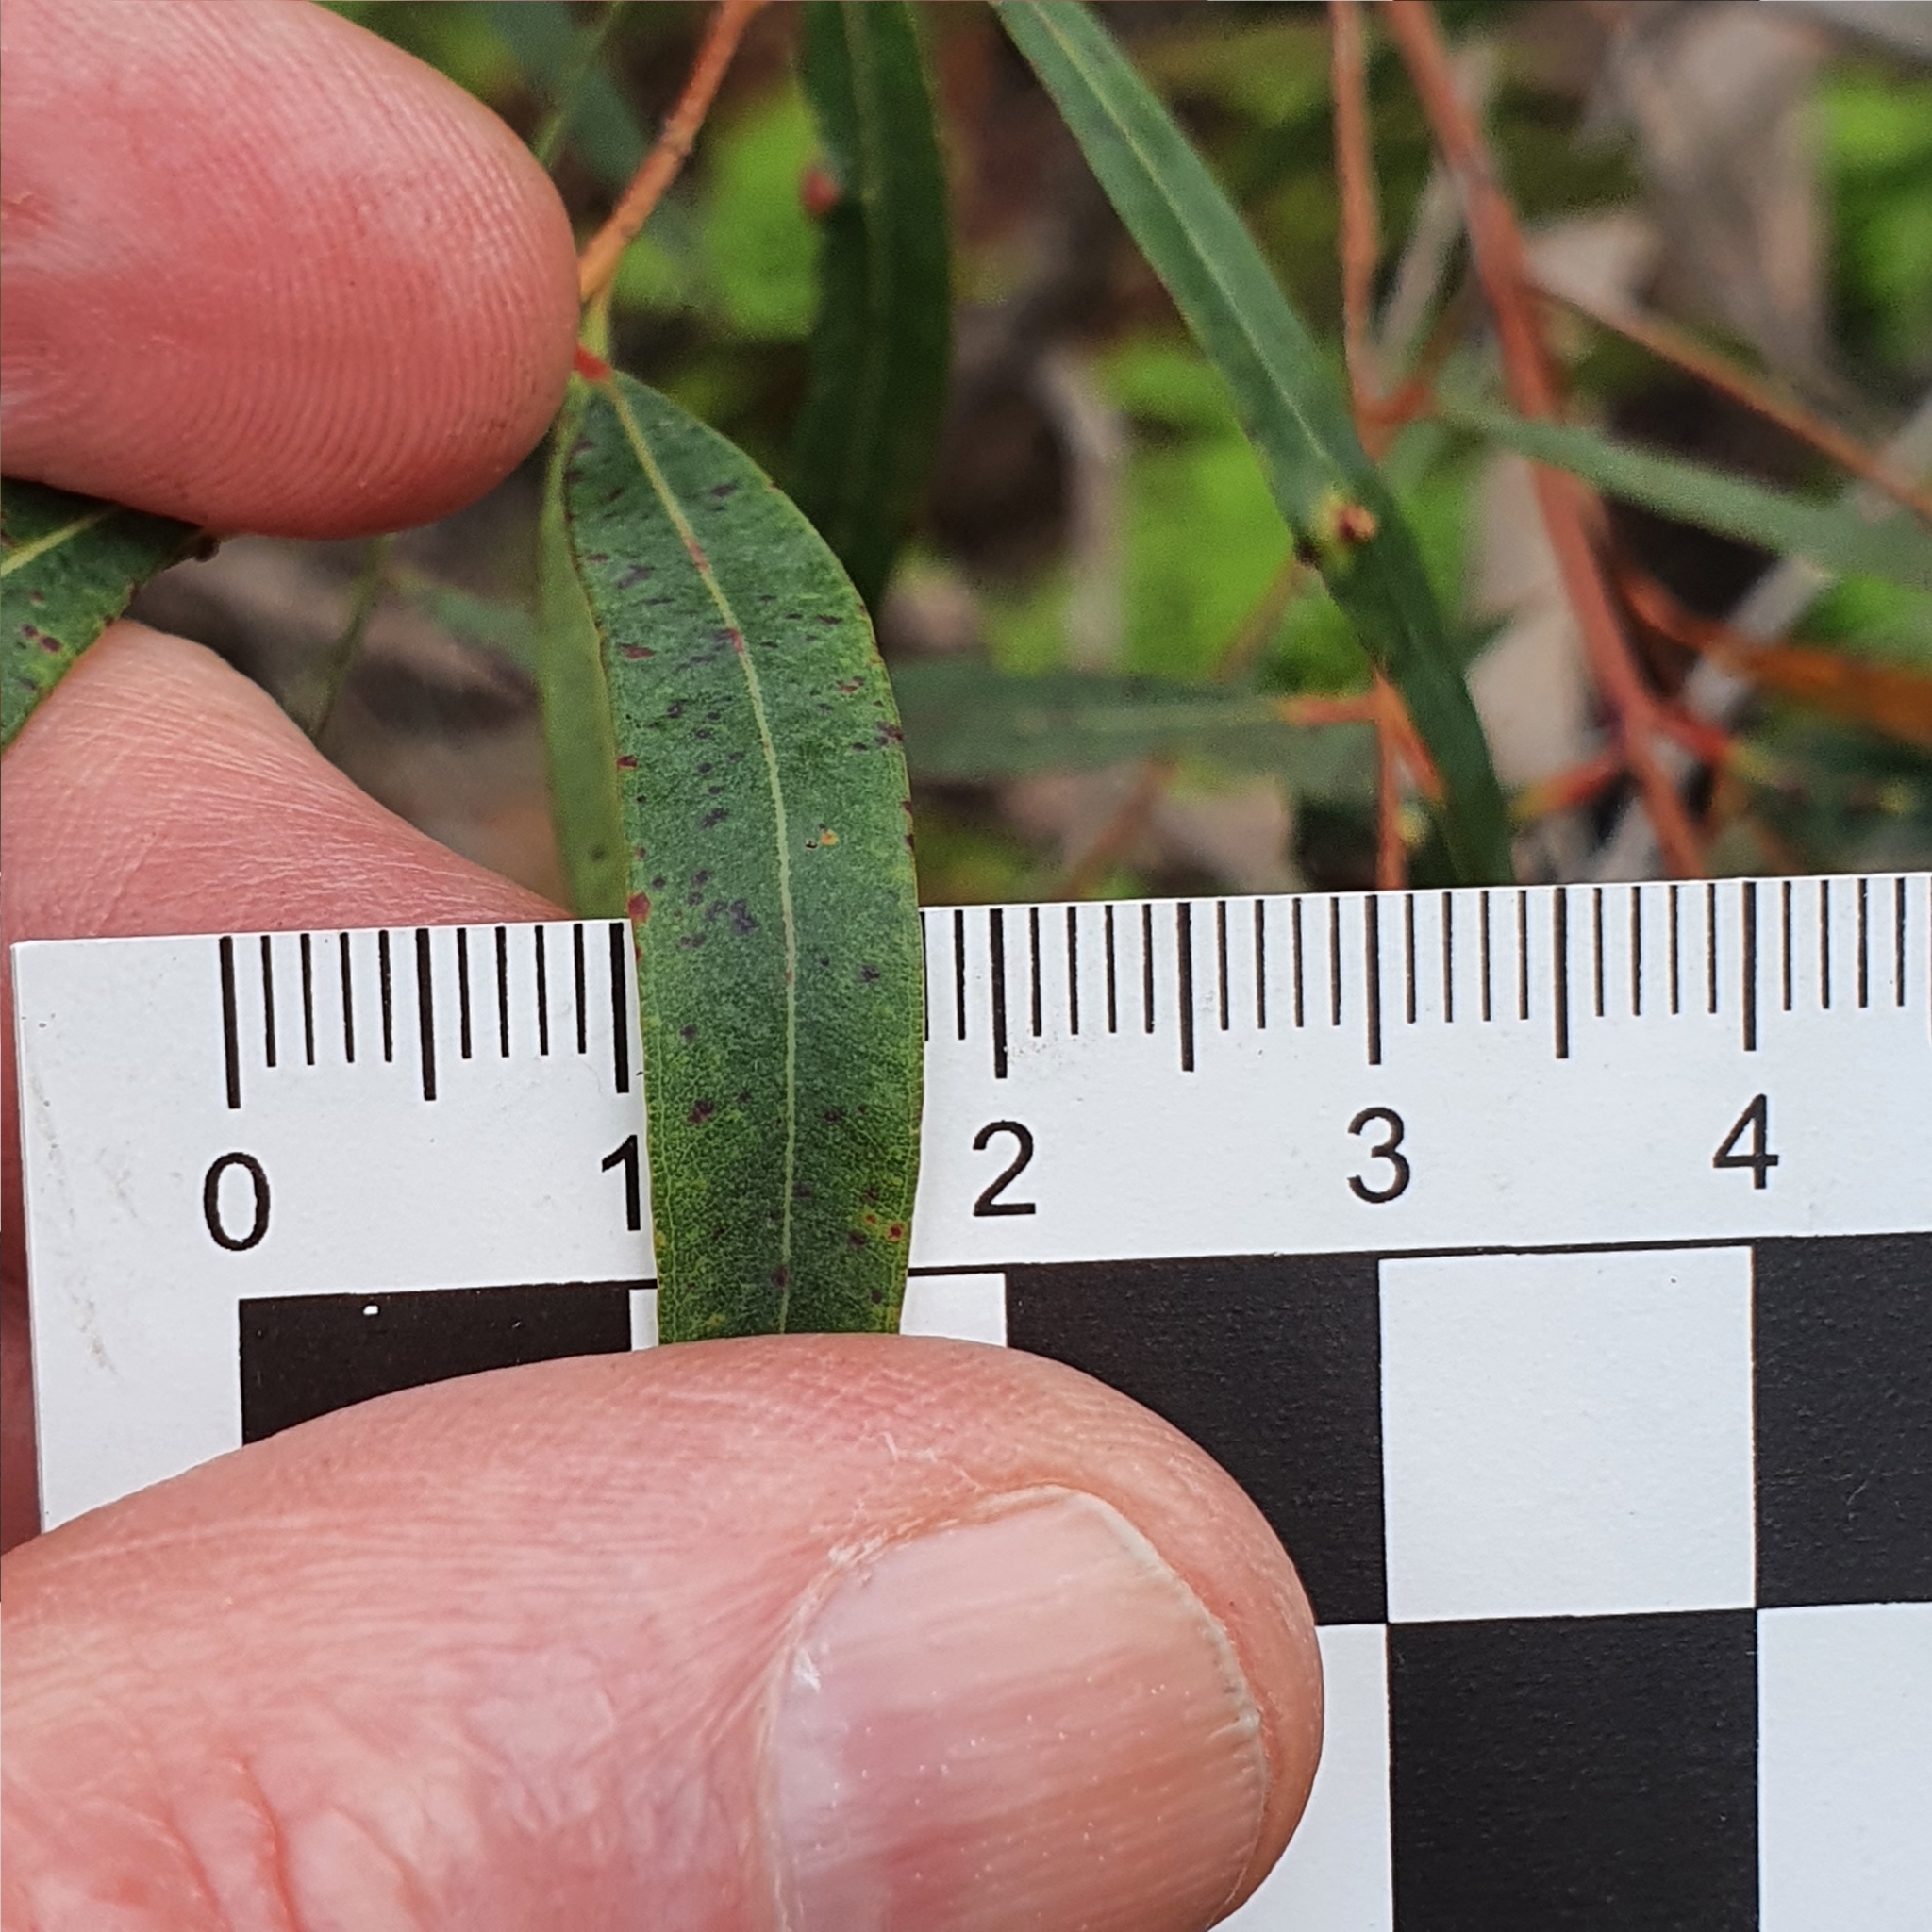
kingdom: Plantae
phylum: Tracheophyta
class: Magnoliopsida
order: Myrtales
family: Myrtaceae
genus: Angophora
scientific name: Angophora bakeri
